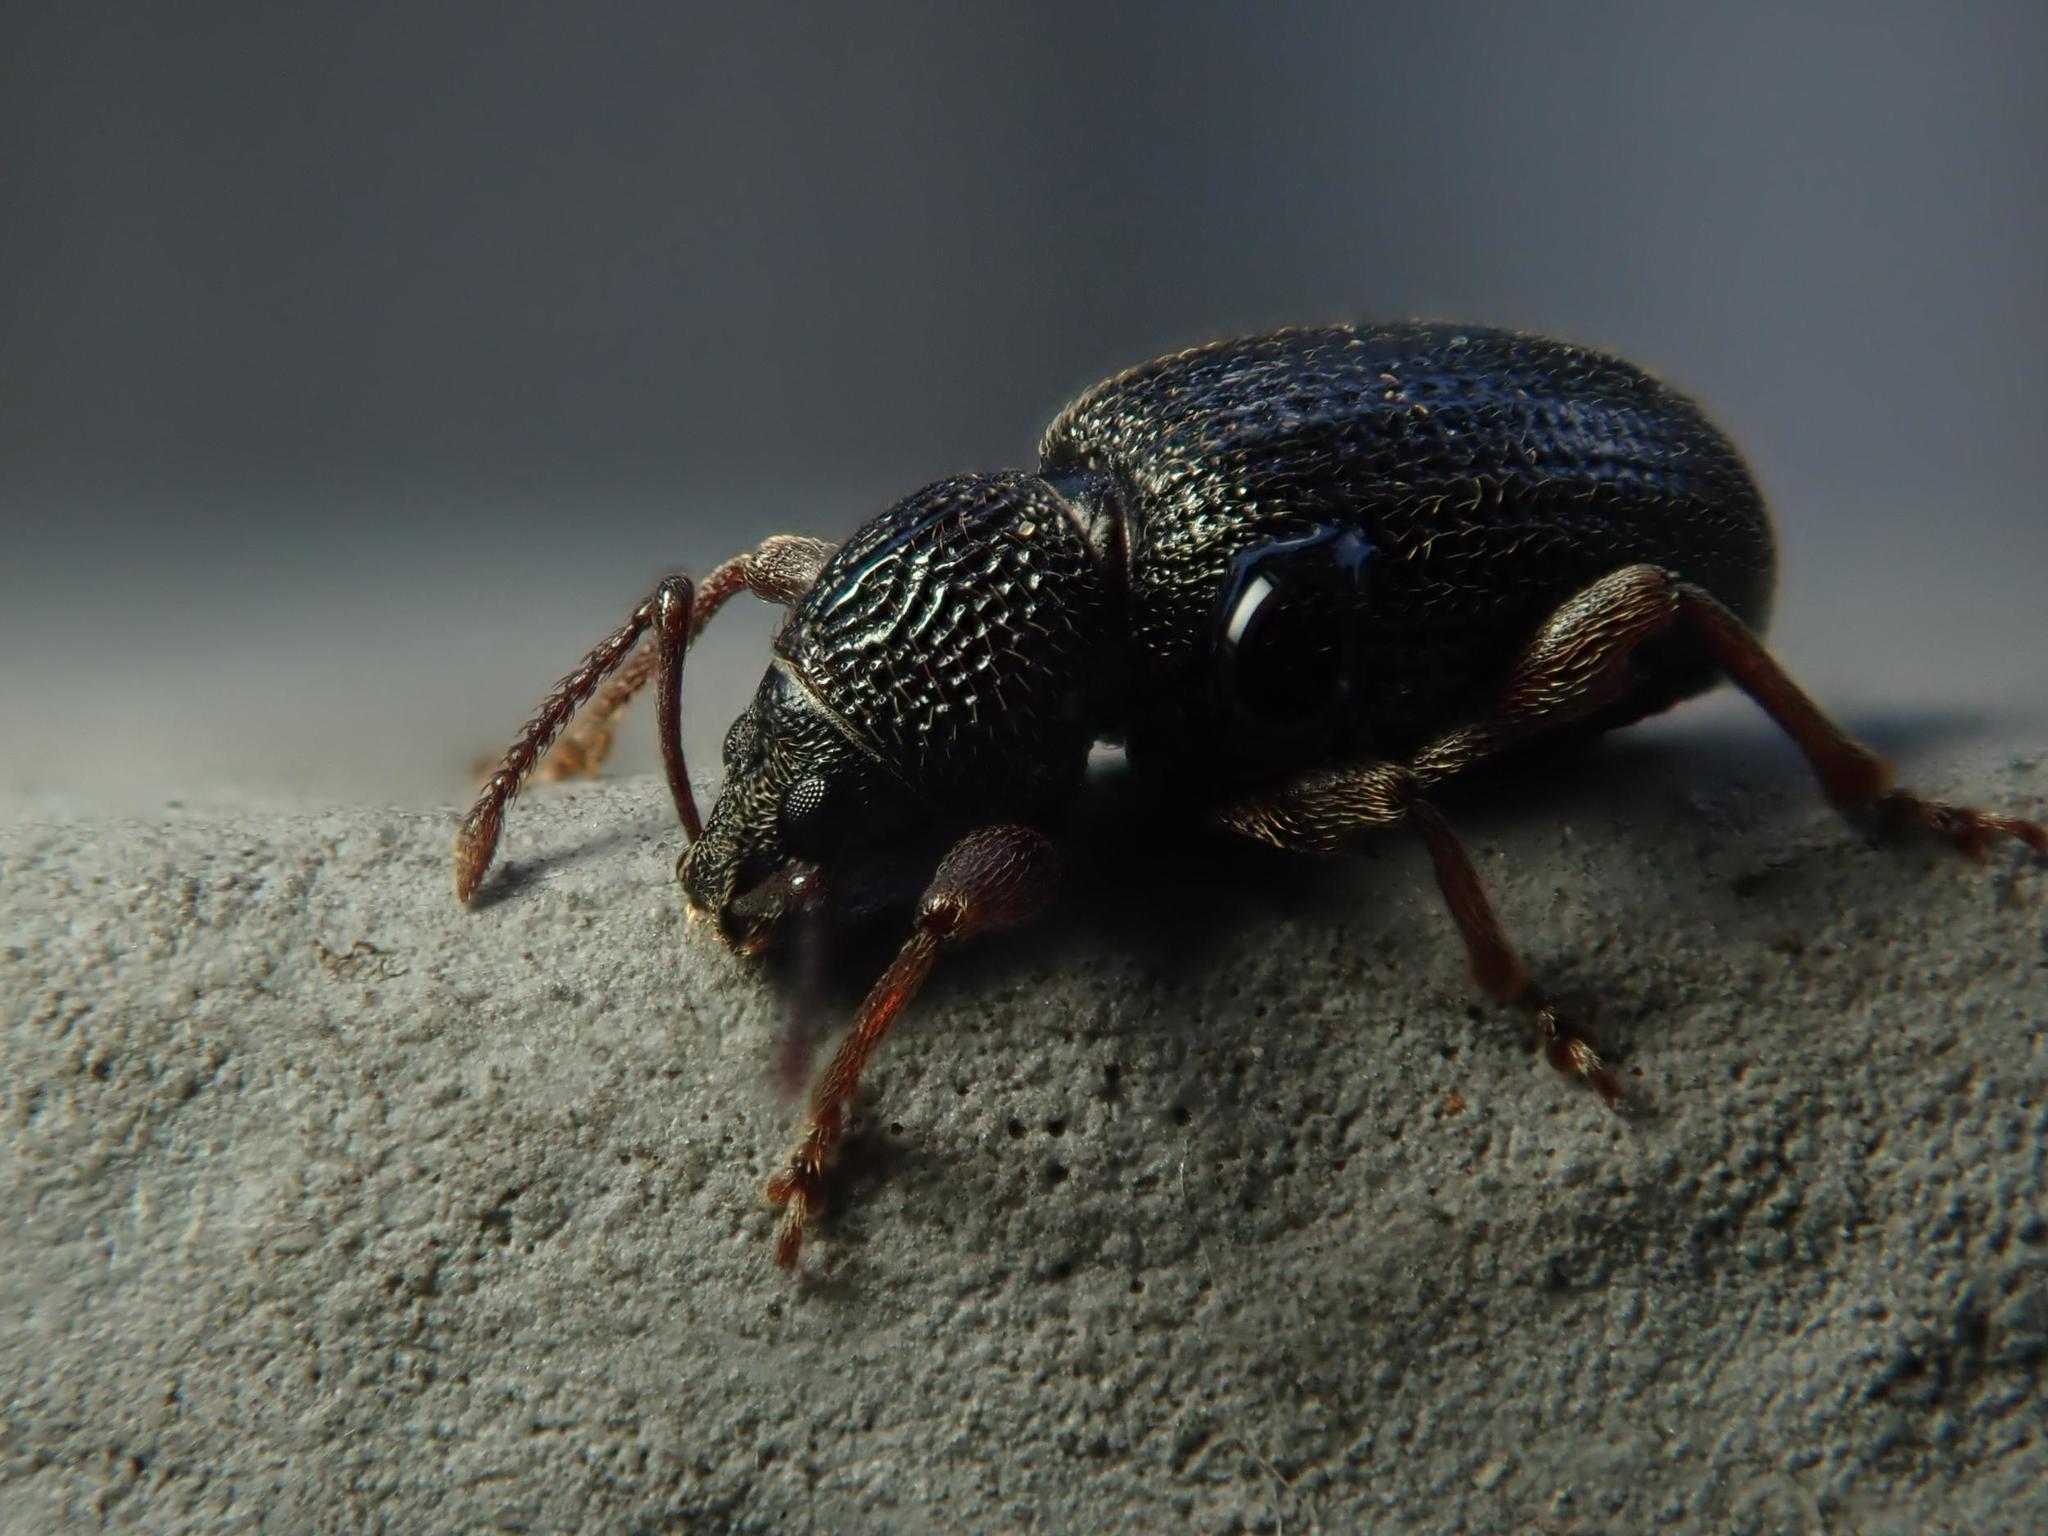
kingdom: Animalia
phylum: Arthropoda
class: Insecta
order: Coleoptera
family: Curculionidae
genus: Otiorhynchus
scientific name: Otiorhynchus ovatus
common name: Strawberry root weevil
